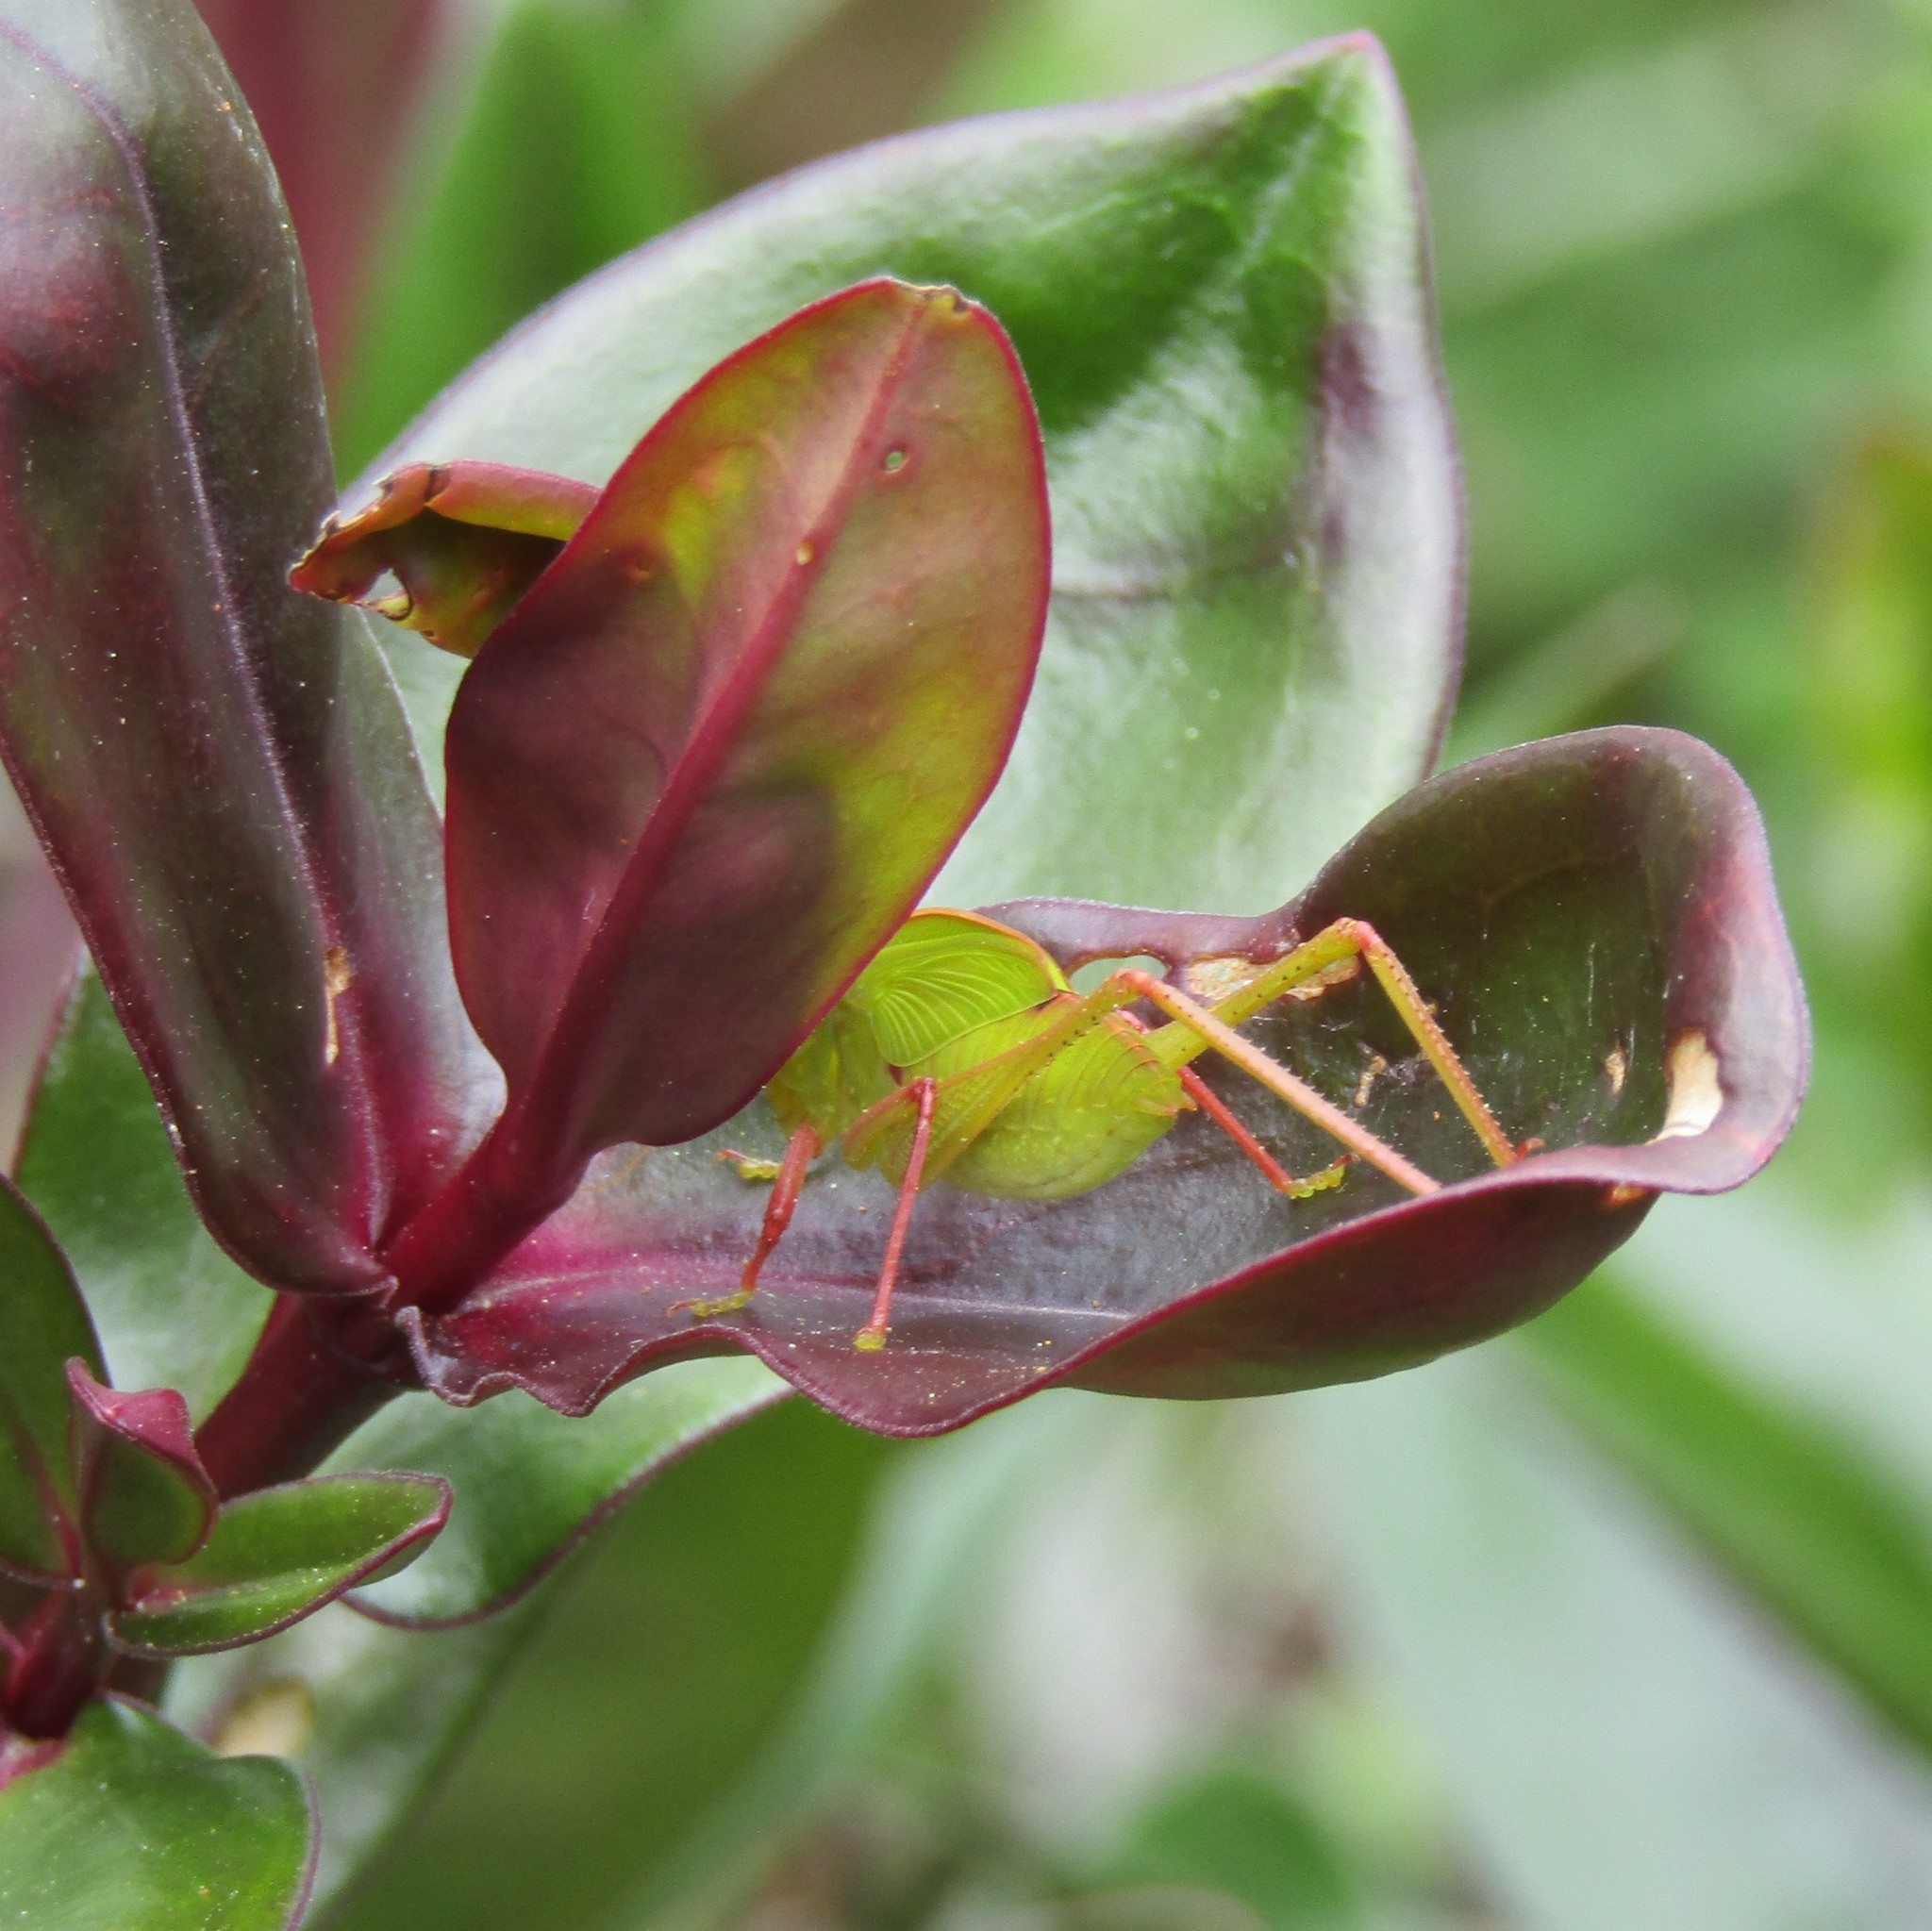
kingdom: Animalia
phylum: Arthropoda
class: Insecta
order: Orthoptera
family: Tettigoniidae
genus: Caedicia
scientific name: Caedicia simplex
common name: Common garden katydid
